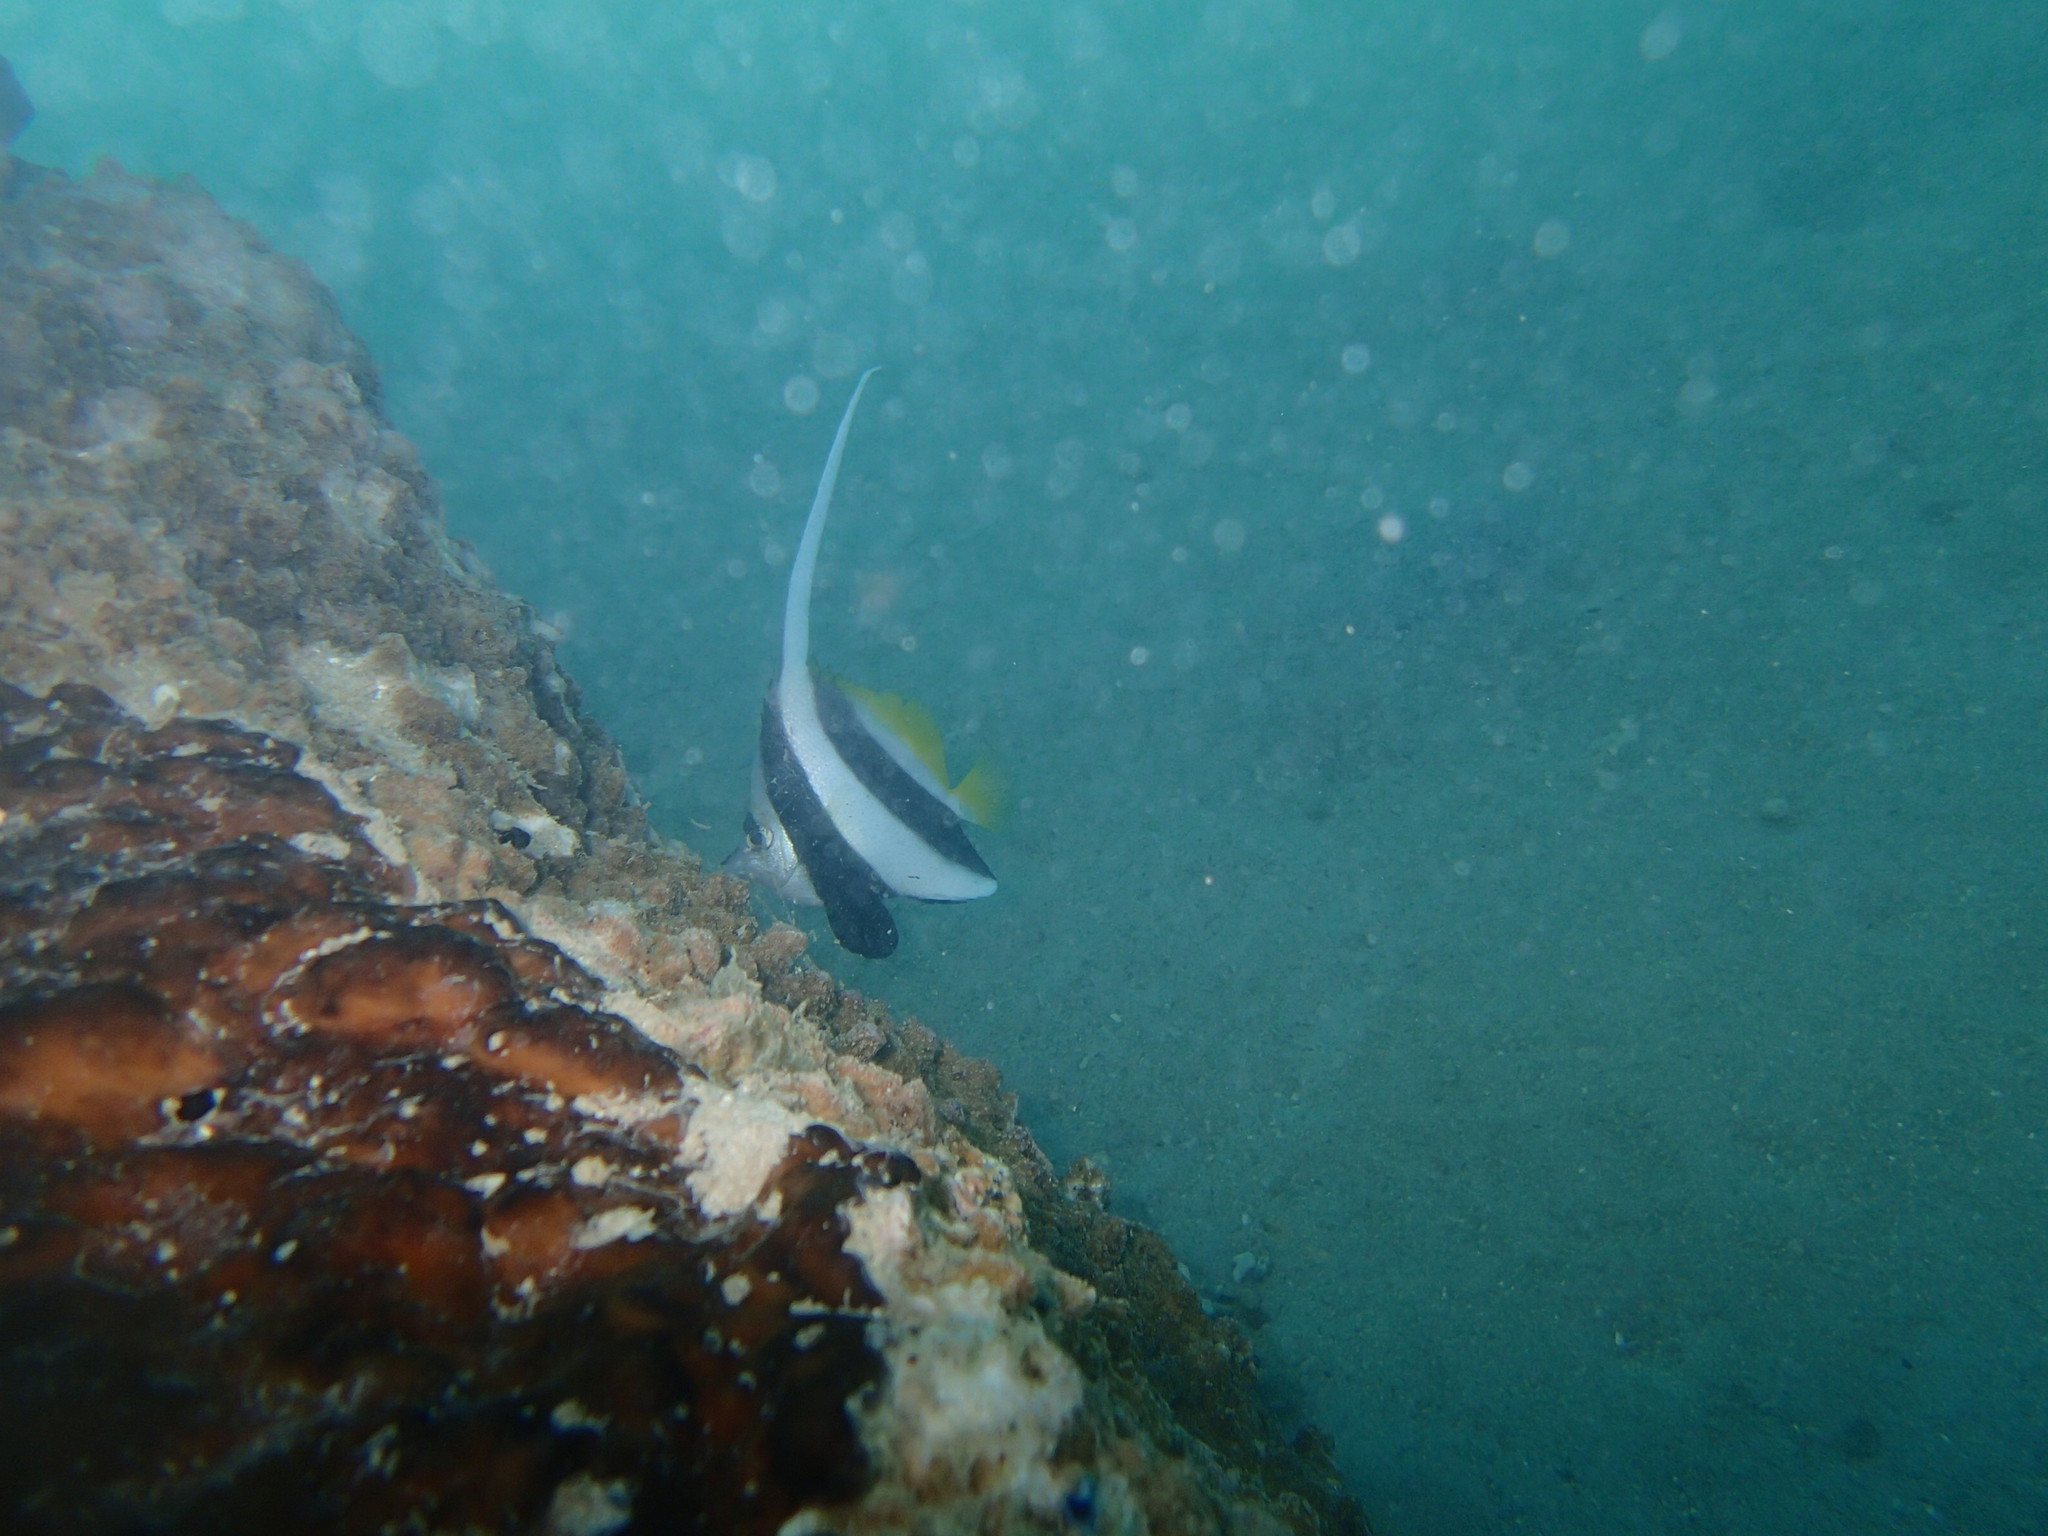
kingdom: Animalia
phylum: Chordata
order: Perciformes
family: Chaetodontidae
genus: Heniochus
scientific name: Heniochus acuminatus
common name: Pennant coralfish
